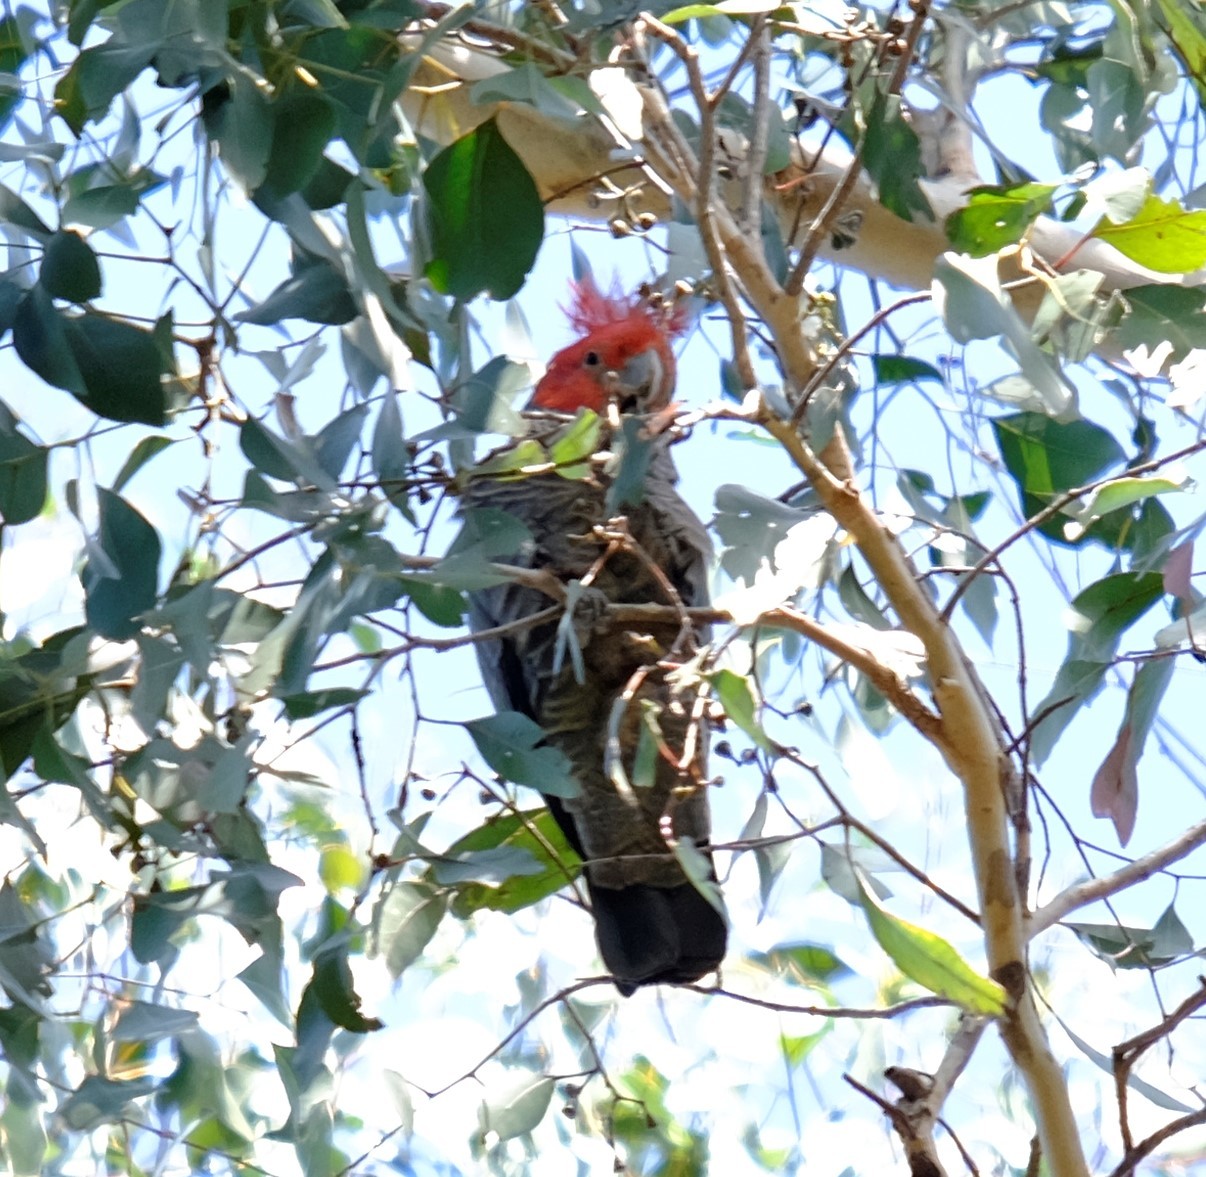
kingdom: Animalia
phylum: Chordata
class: Aves
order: Psittaciformes
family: Psittacidae
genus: Callocephalon
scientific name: Callocephalon fimbriatum
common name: Gang-gang cockatoo
